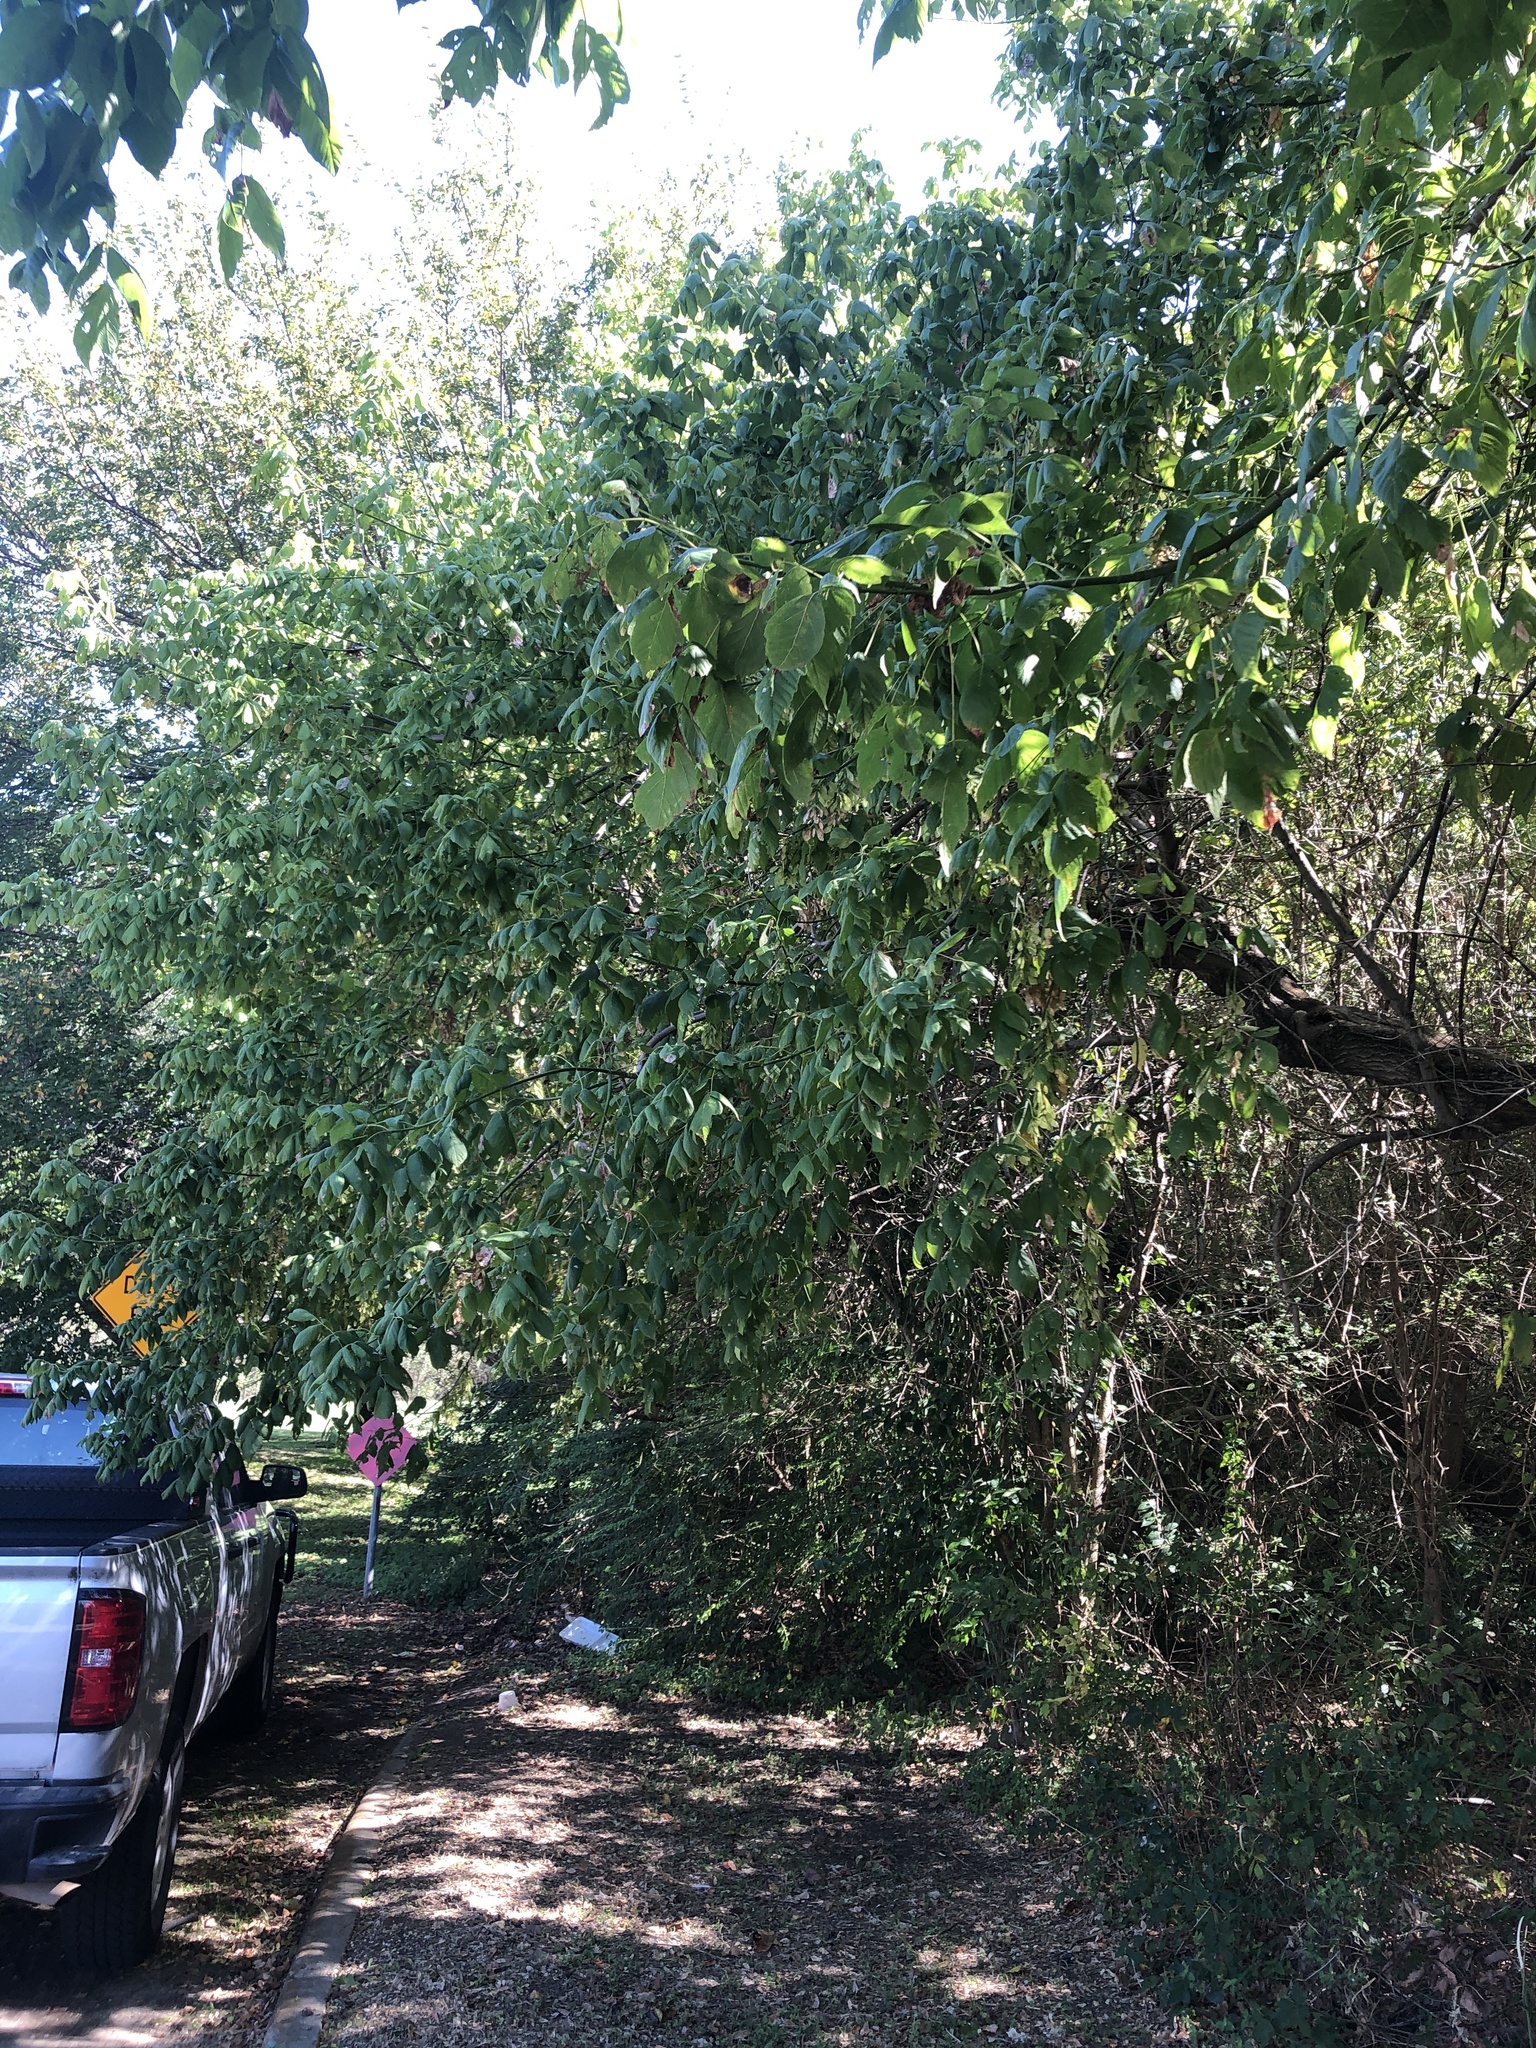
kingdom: Plantae
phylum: Tracheophyta
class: Magnoliopsida
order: Sapindales
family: Sapindaceae
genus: Acer
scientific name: Acer negundo
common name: Ashleaf maple
